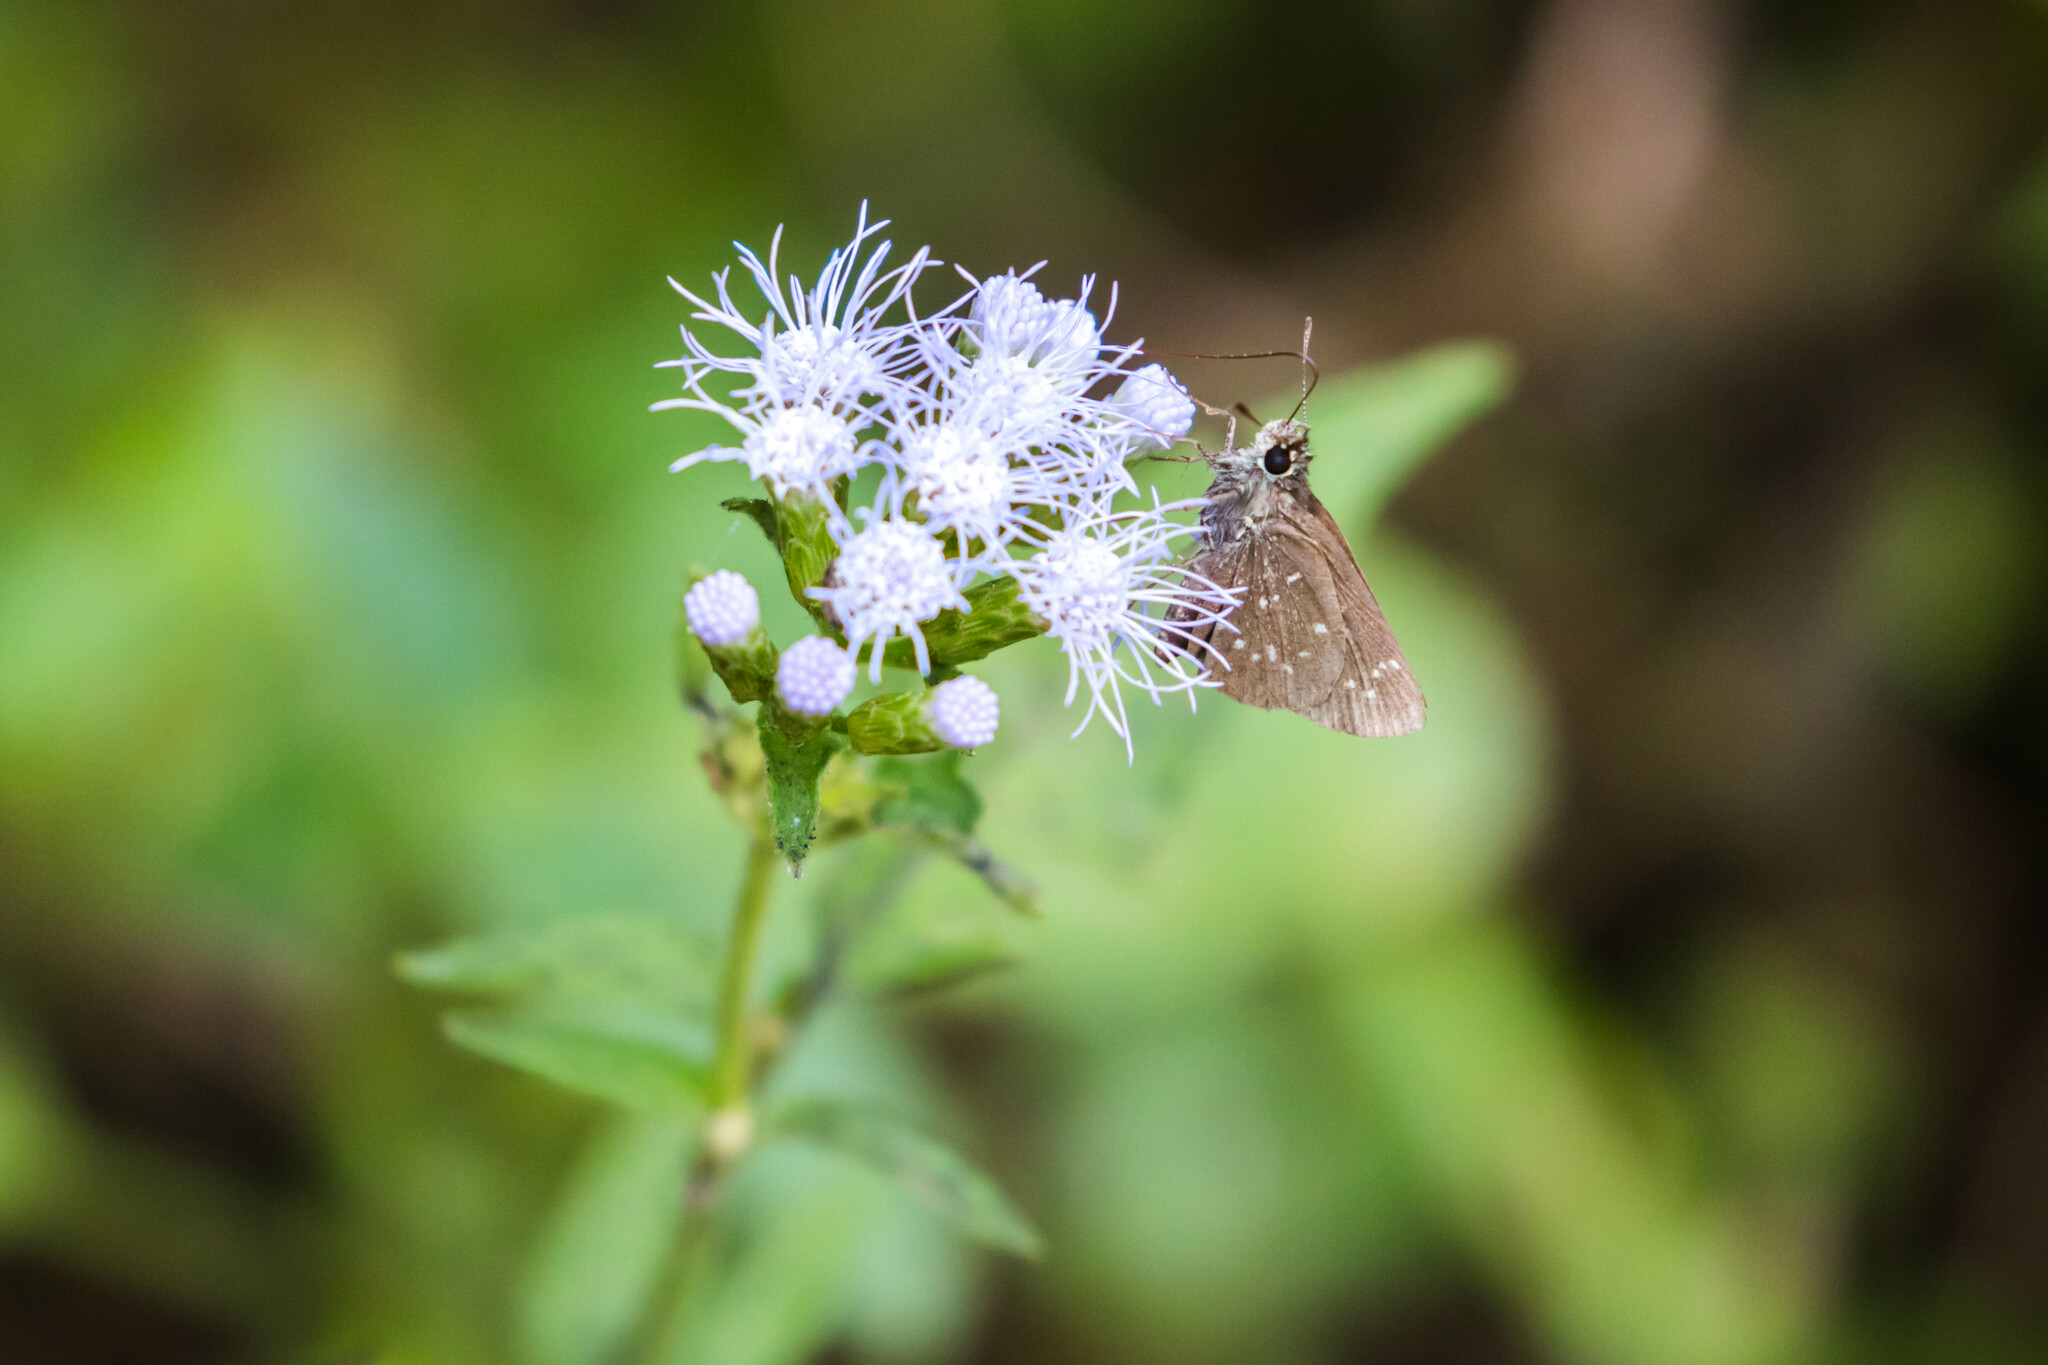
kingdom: Animalia
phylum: Arthropoda
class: Insecta
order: Lepidoptera
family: Hesperiidae
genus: Mastor
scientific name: Mastor celia
